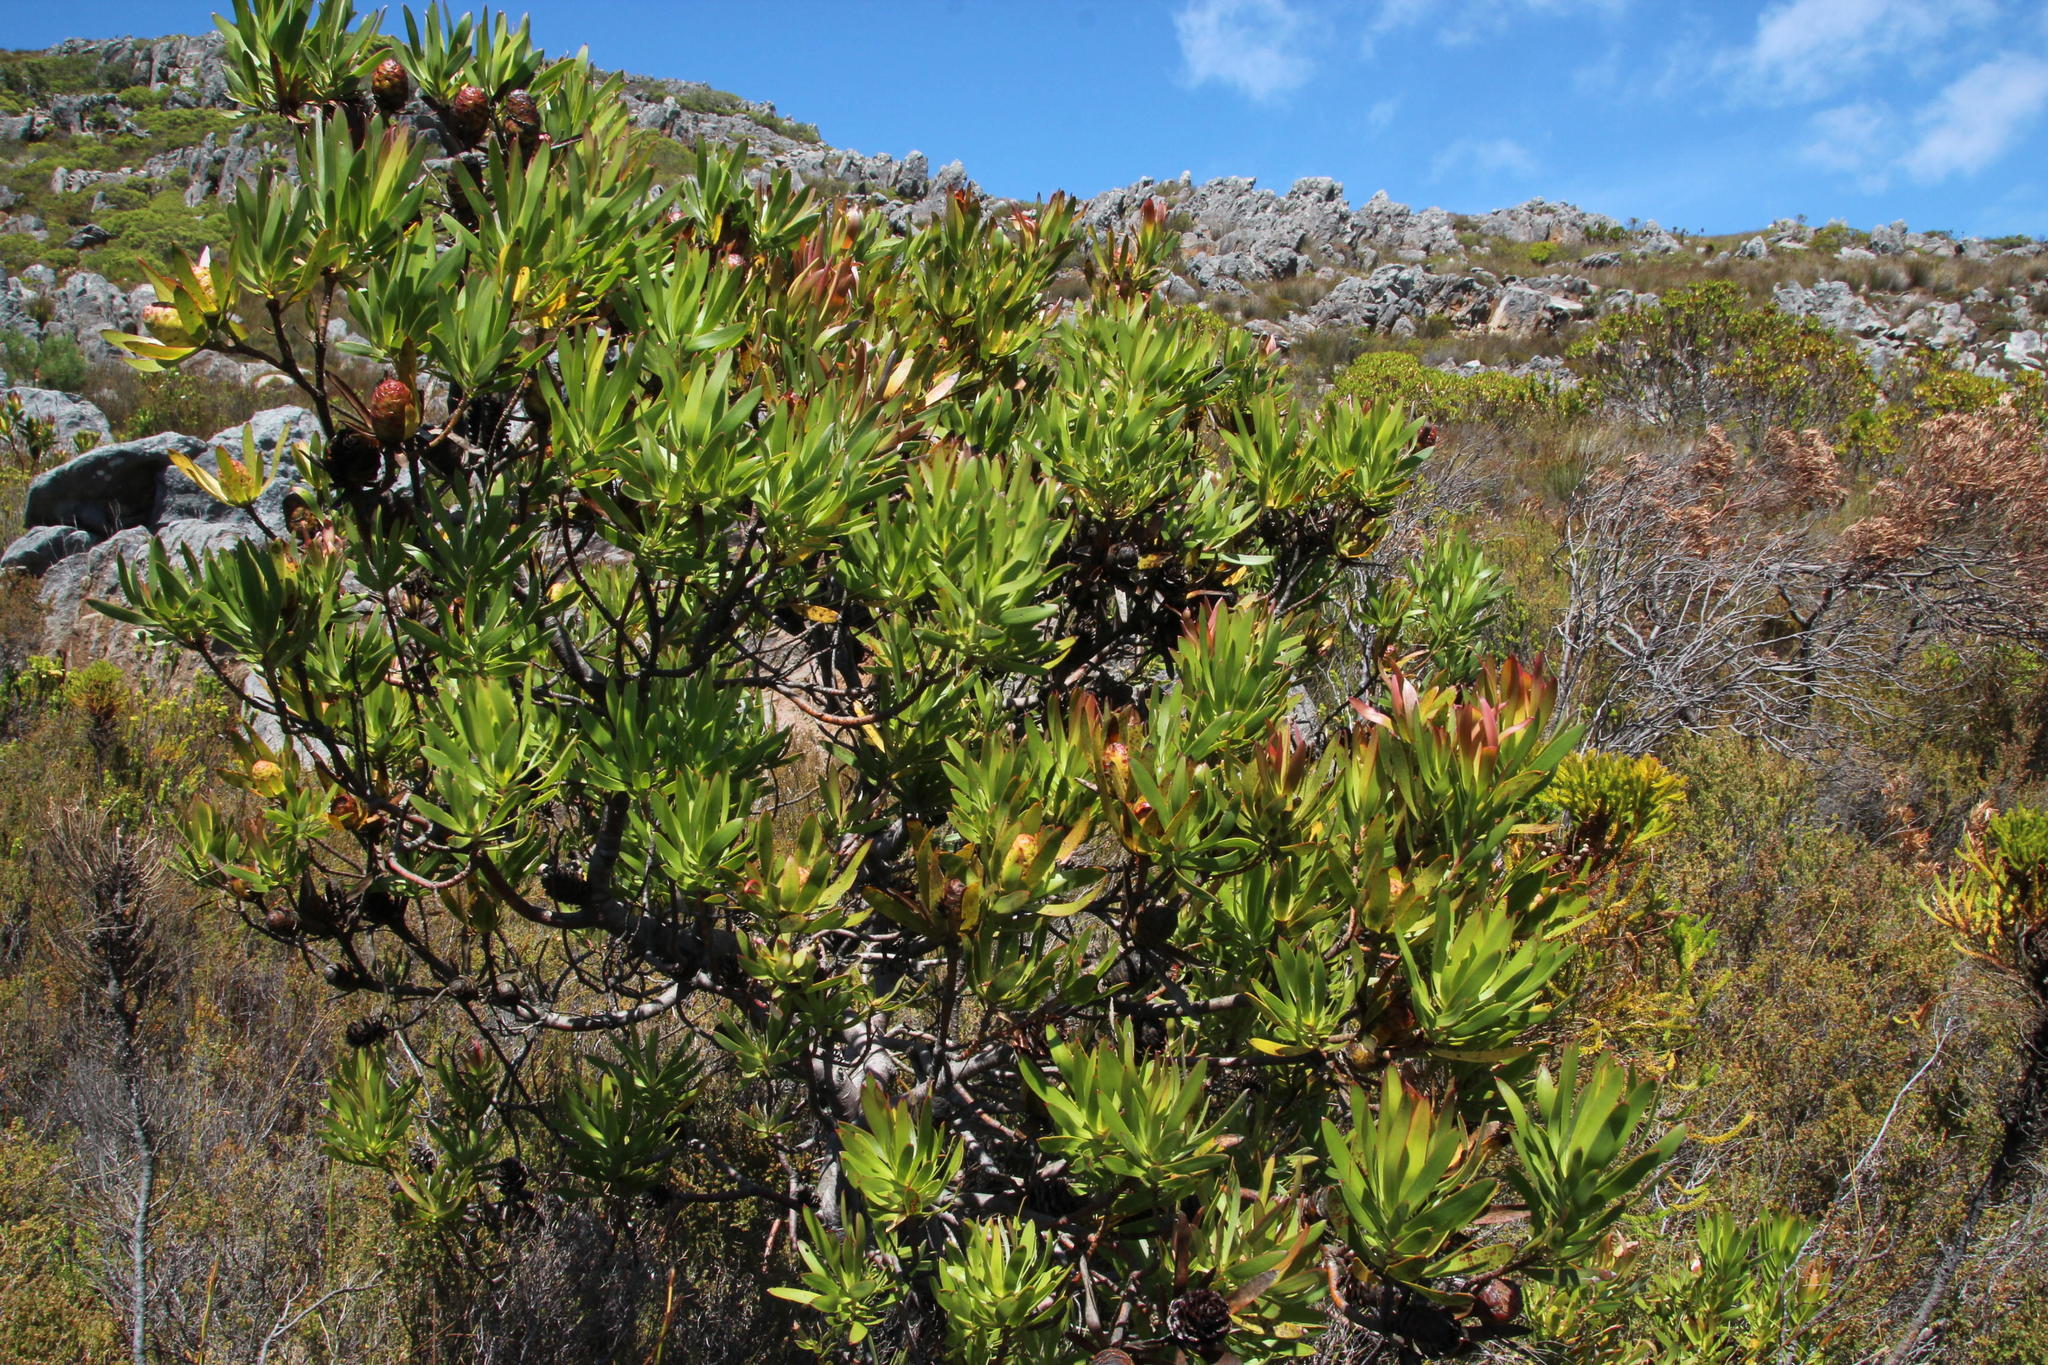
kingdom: Plantae
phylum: Tracheophyta
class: Magnoliopsida
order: Proteales
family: Proteaceae
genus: Leucadendron
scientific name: Leucadendron gandogeri
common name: Broad-leaf conebush
